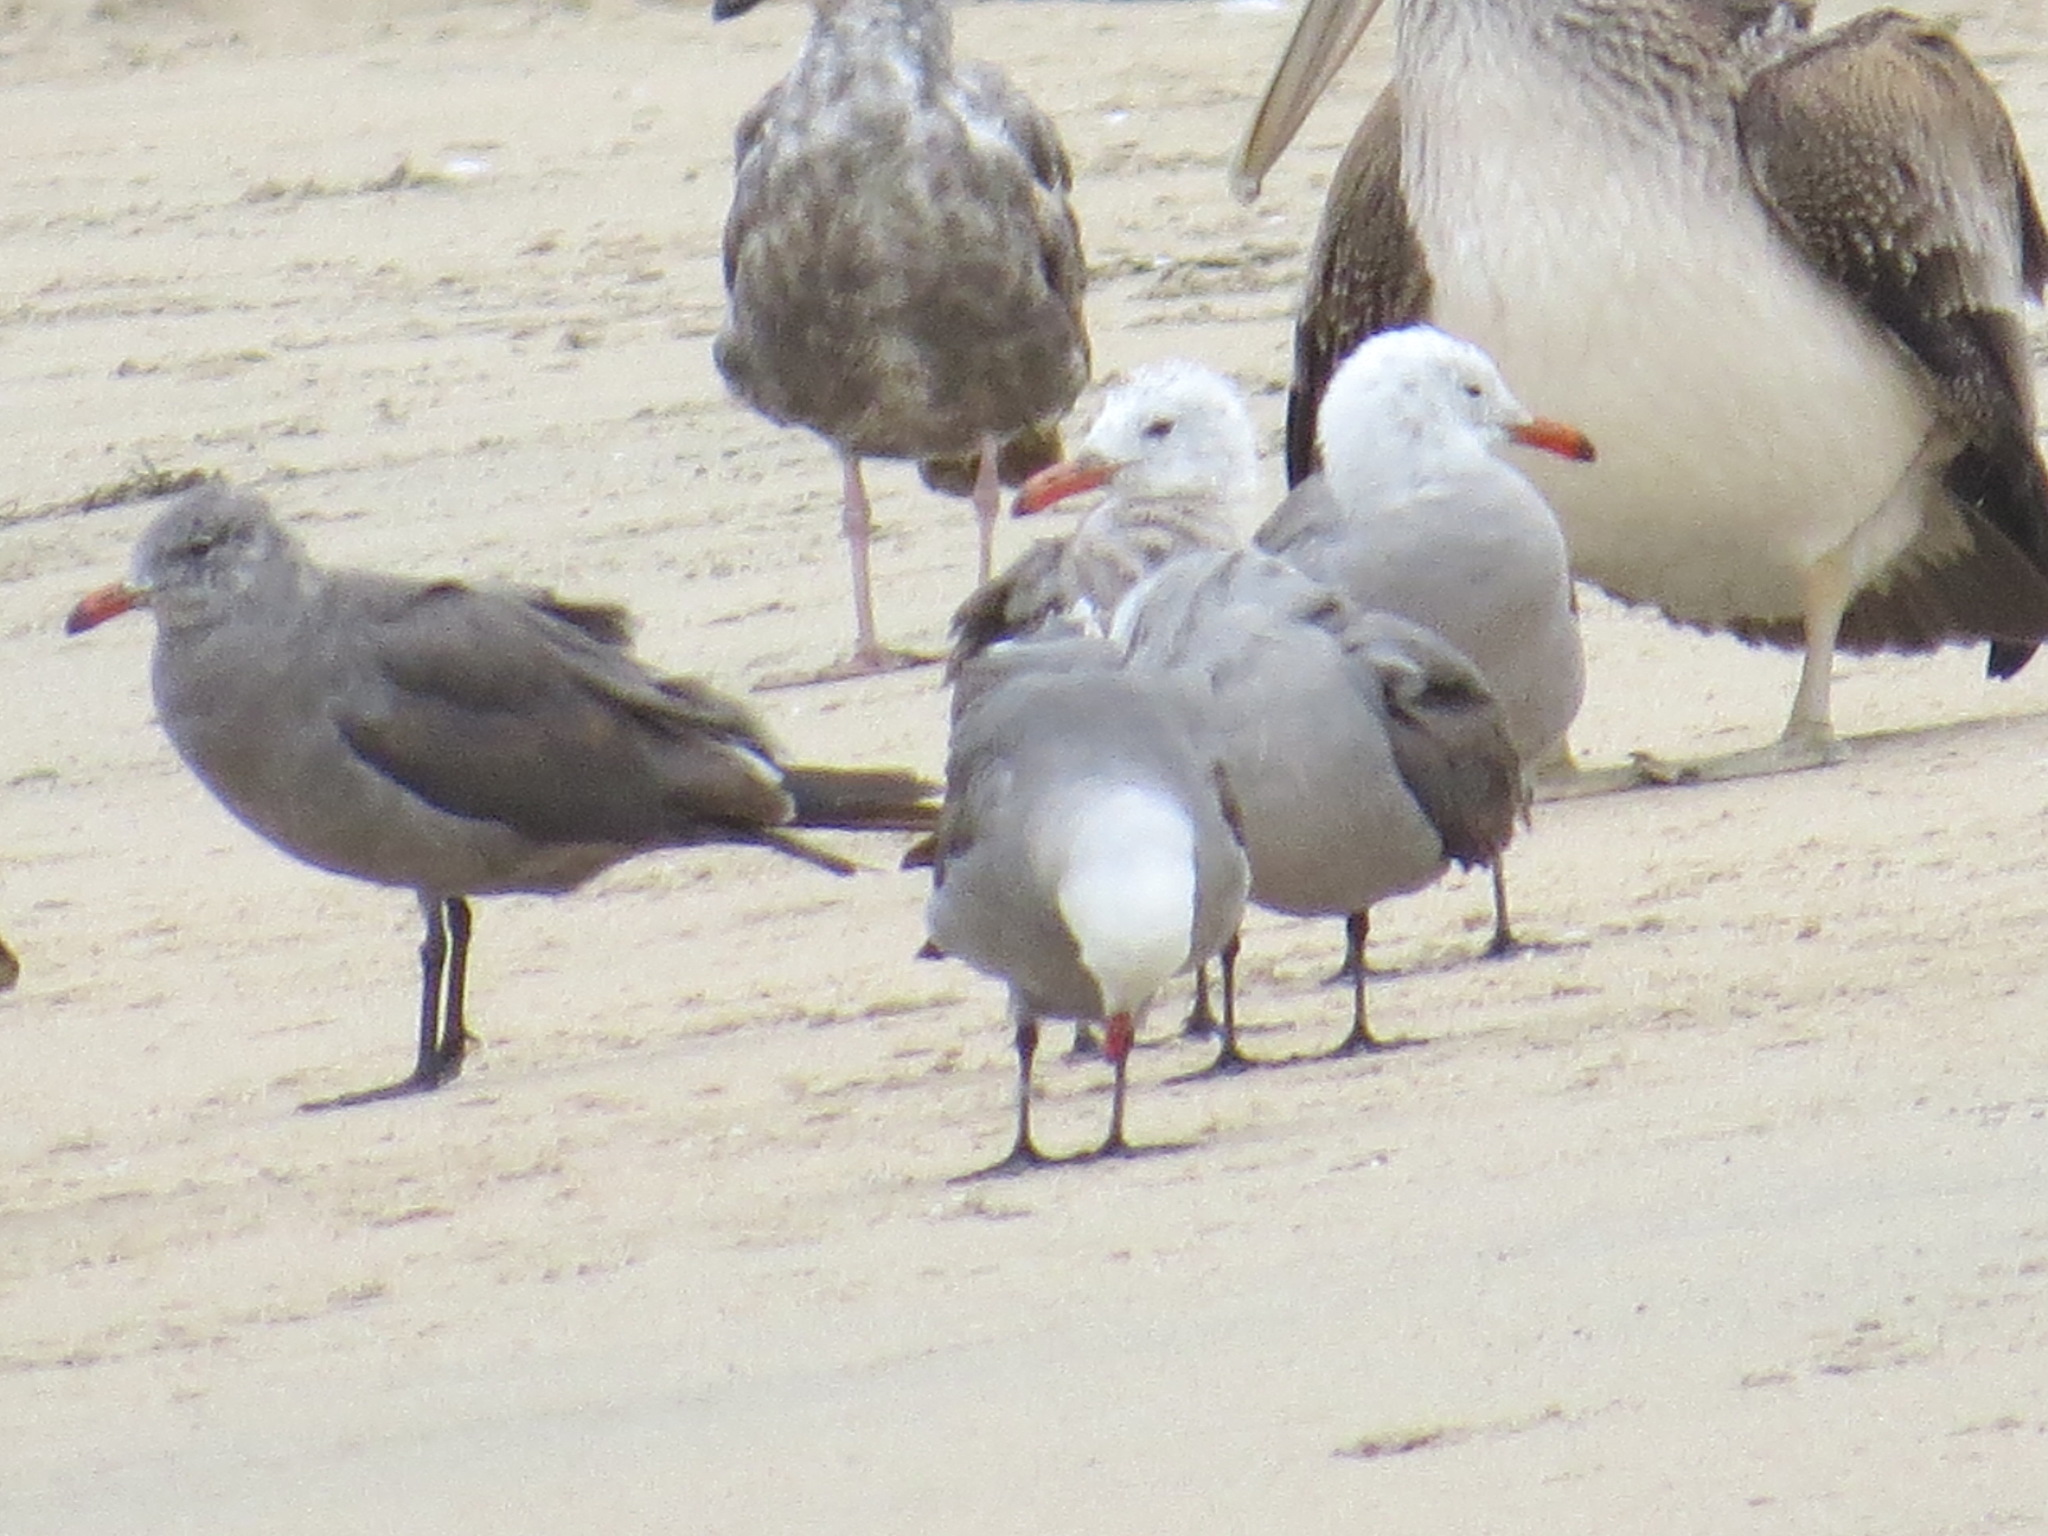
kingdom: Animalia
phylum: Chordata
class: Aves
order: Charadriiformes
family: Laridae
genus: Larus
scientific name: Larus heermanni
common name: Heermann's gull
